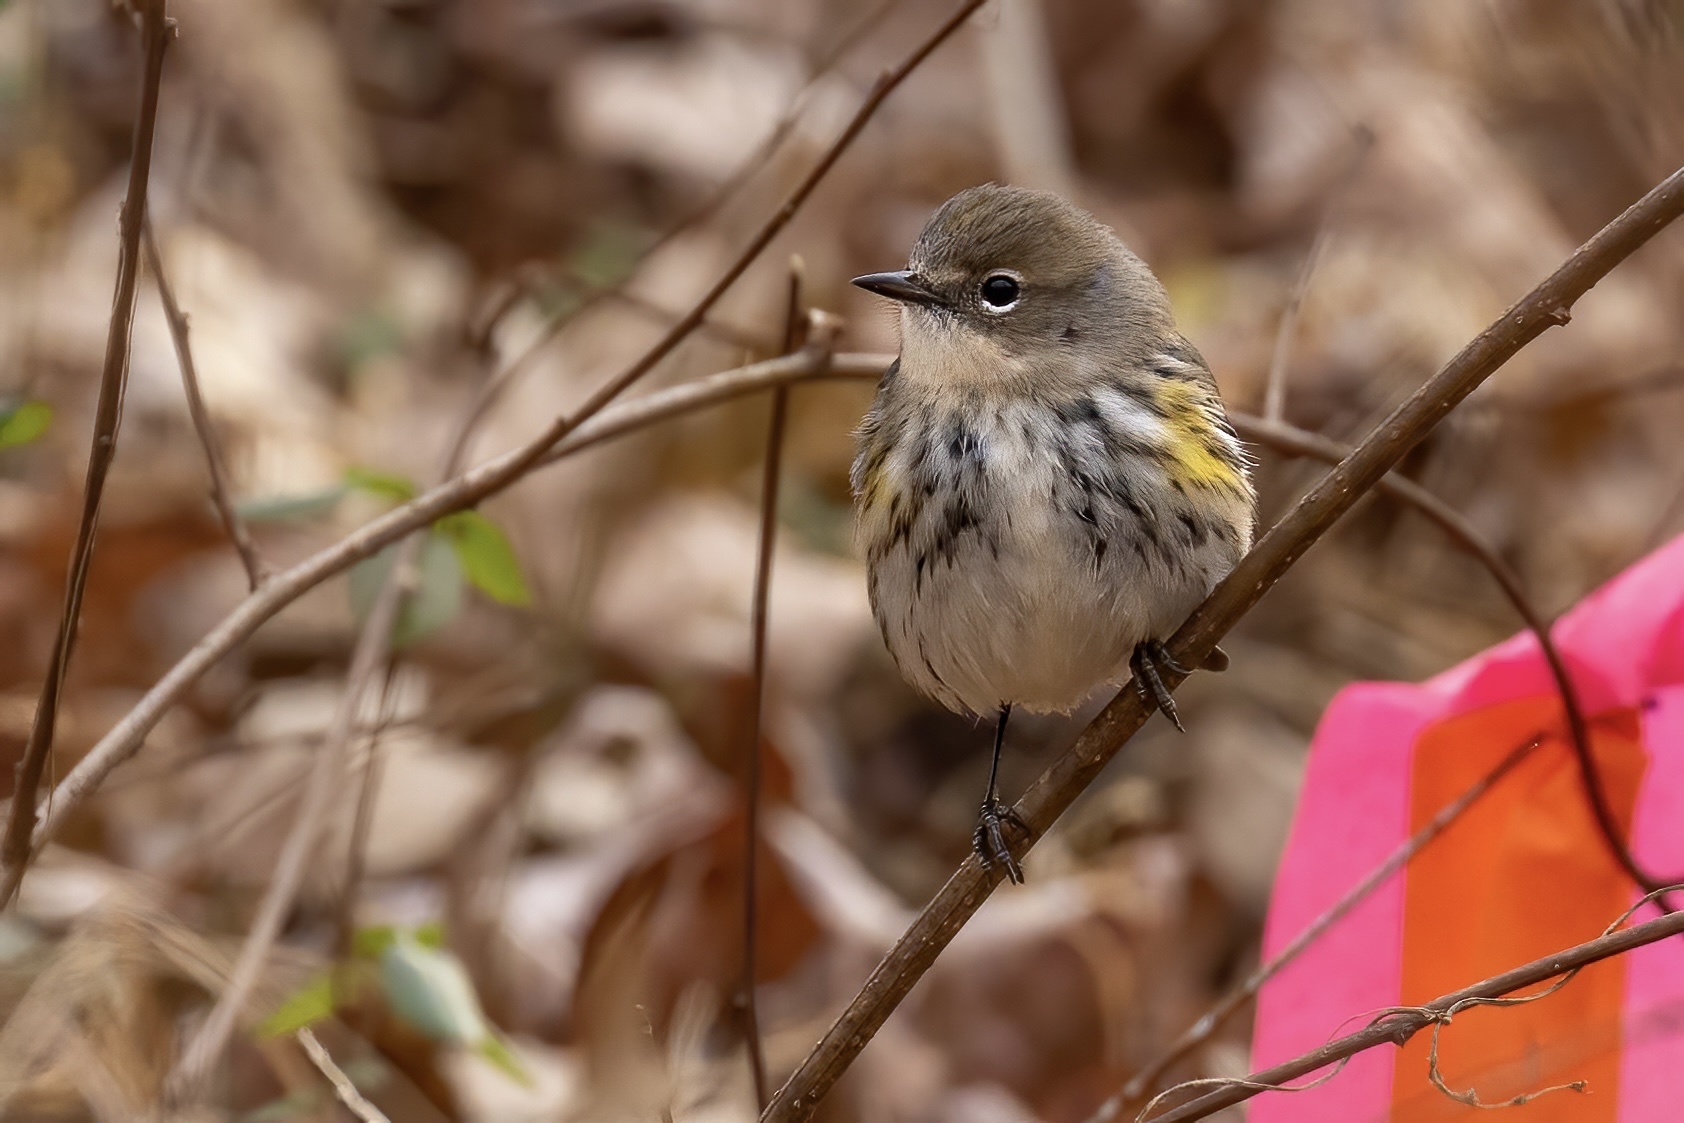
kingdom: Animalia
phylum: Chordata
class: Aves
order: Passeriformes
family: Parulidae
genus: Setophaga
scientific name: Setophaga coronata
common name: Myrtle warbler
